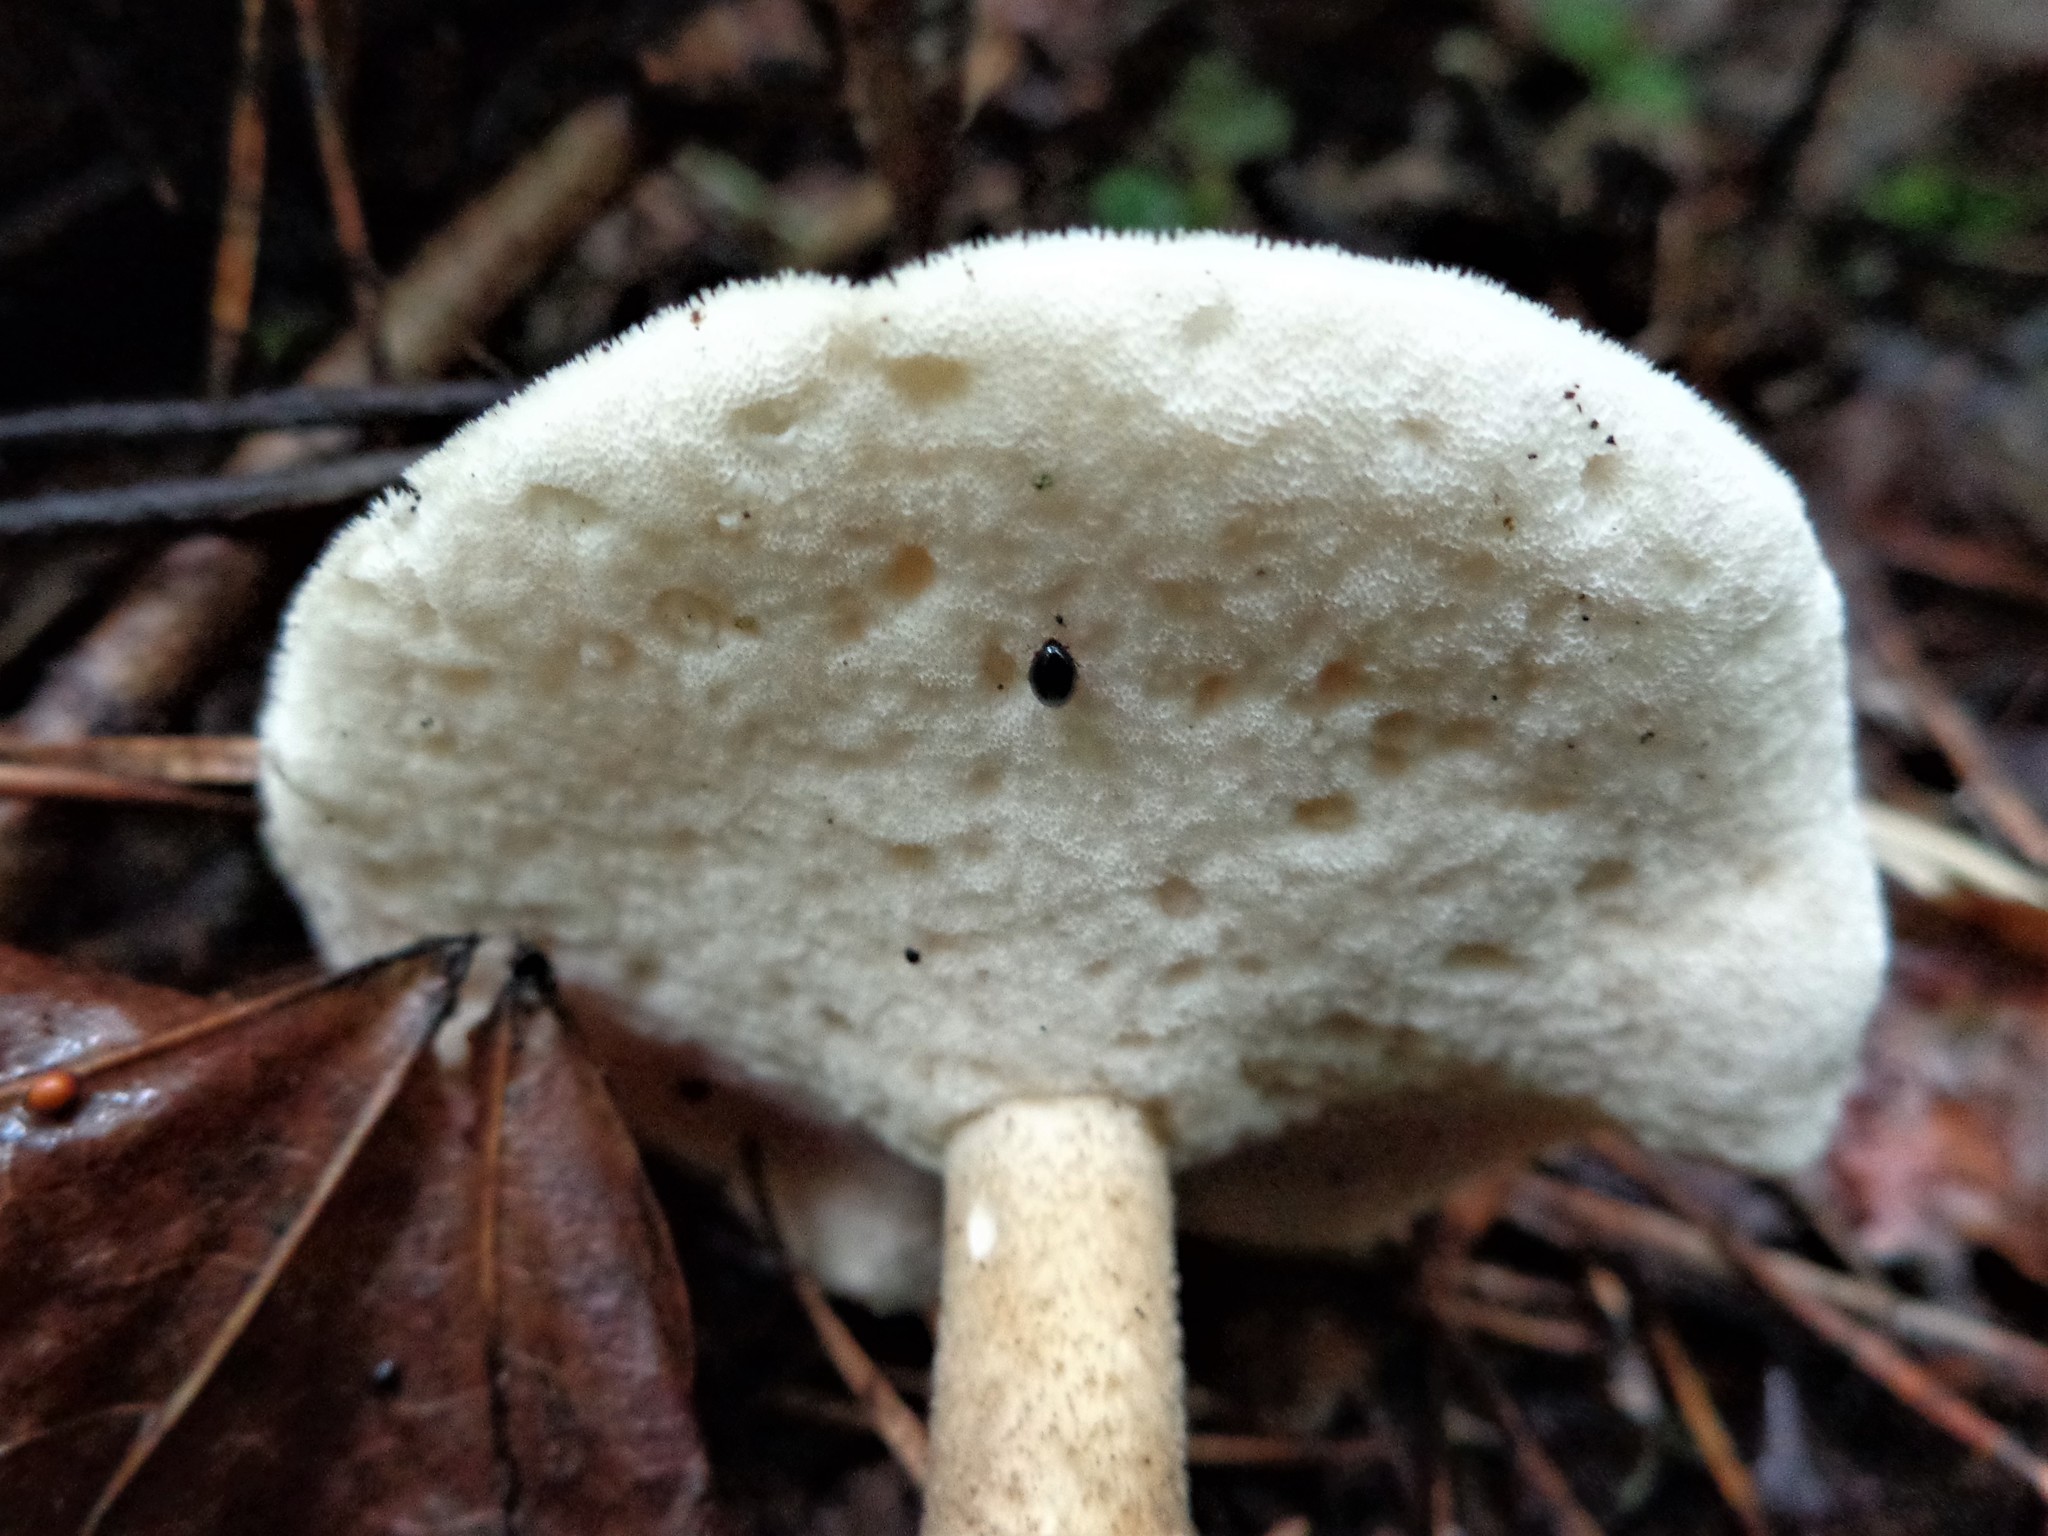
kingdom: Fungi
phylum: Basidiomycota
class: Agaricomycetes
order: Polyporales
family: Polyporaceae
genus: Lentinus
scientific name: Lentinus substrictus
